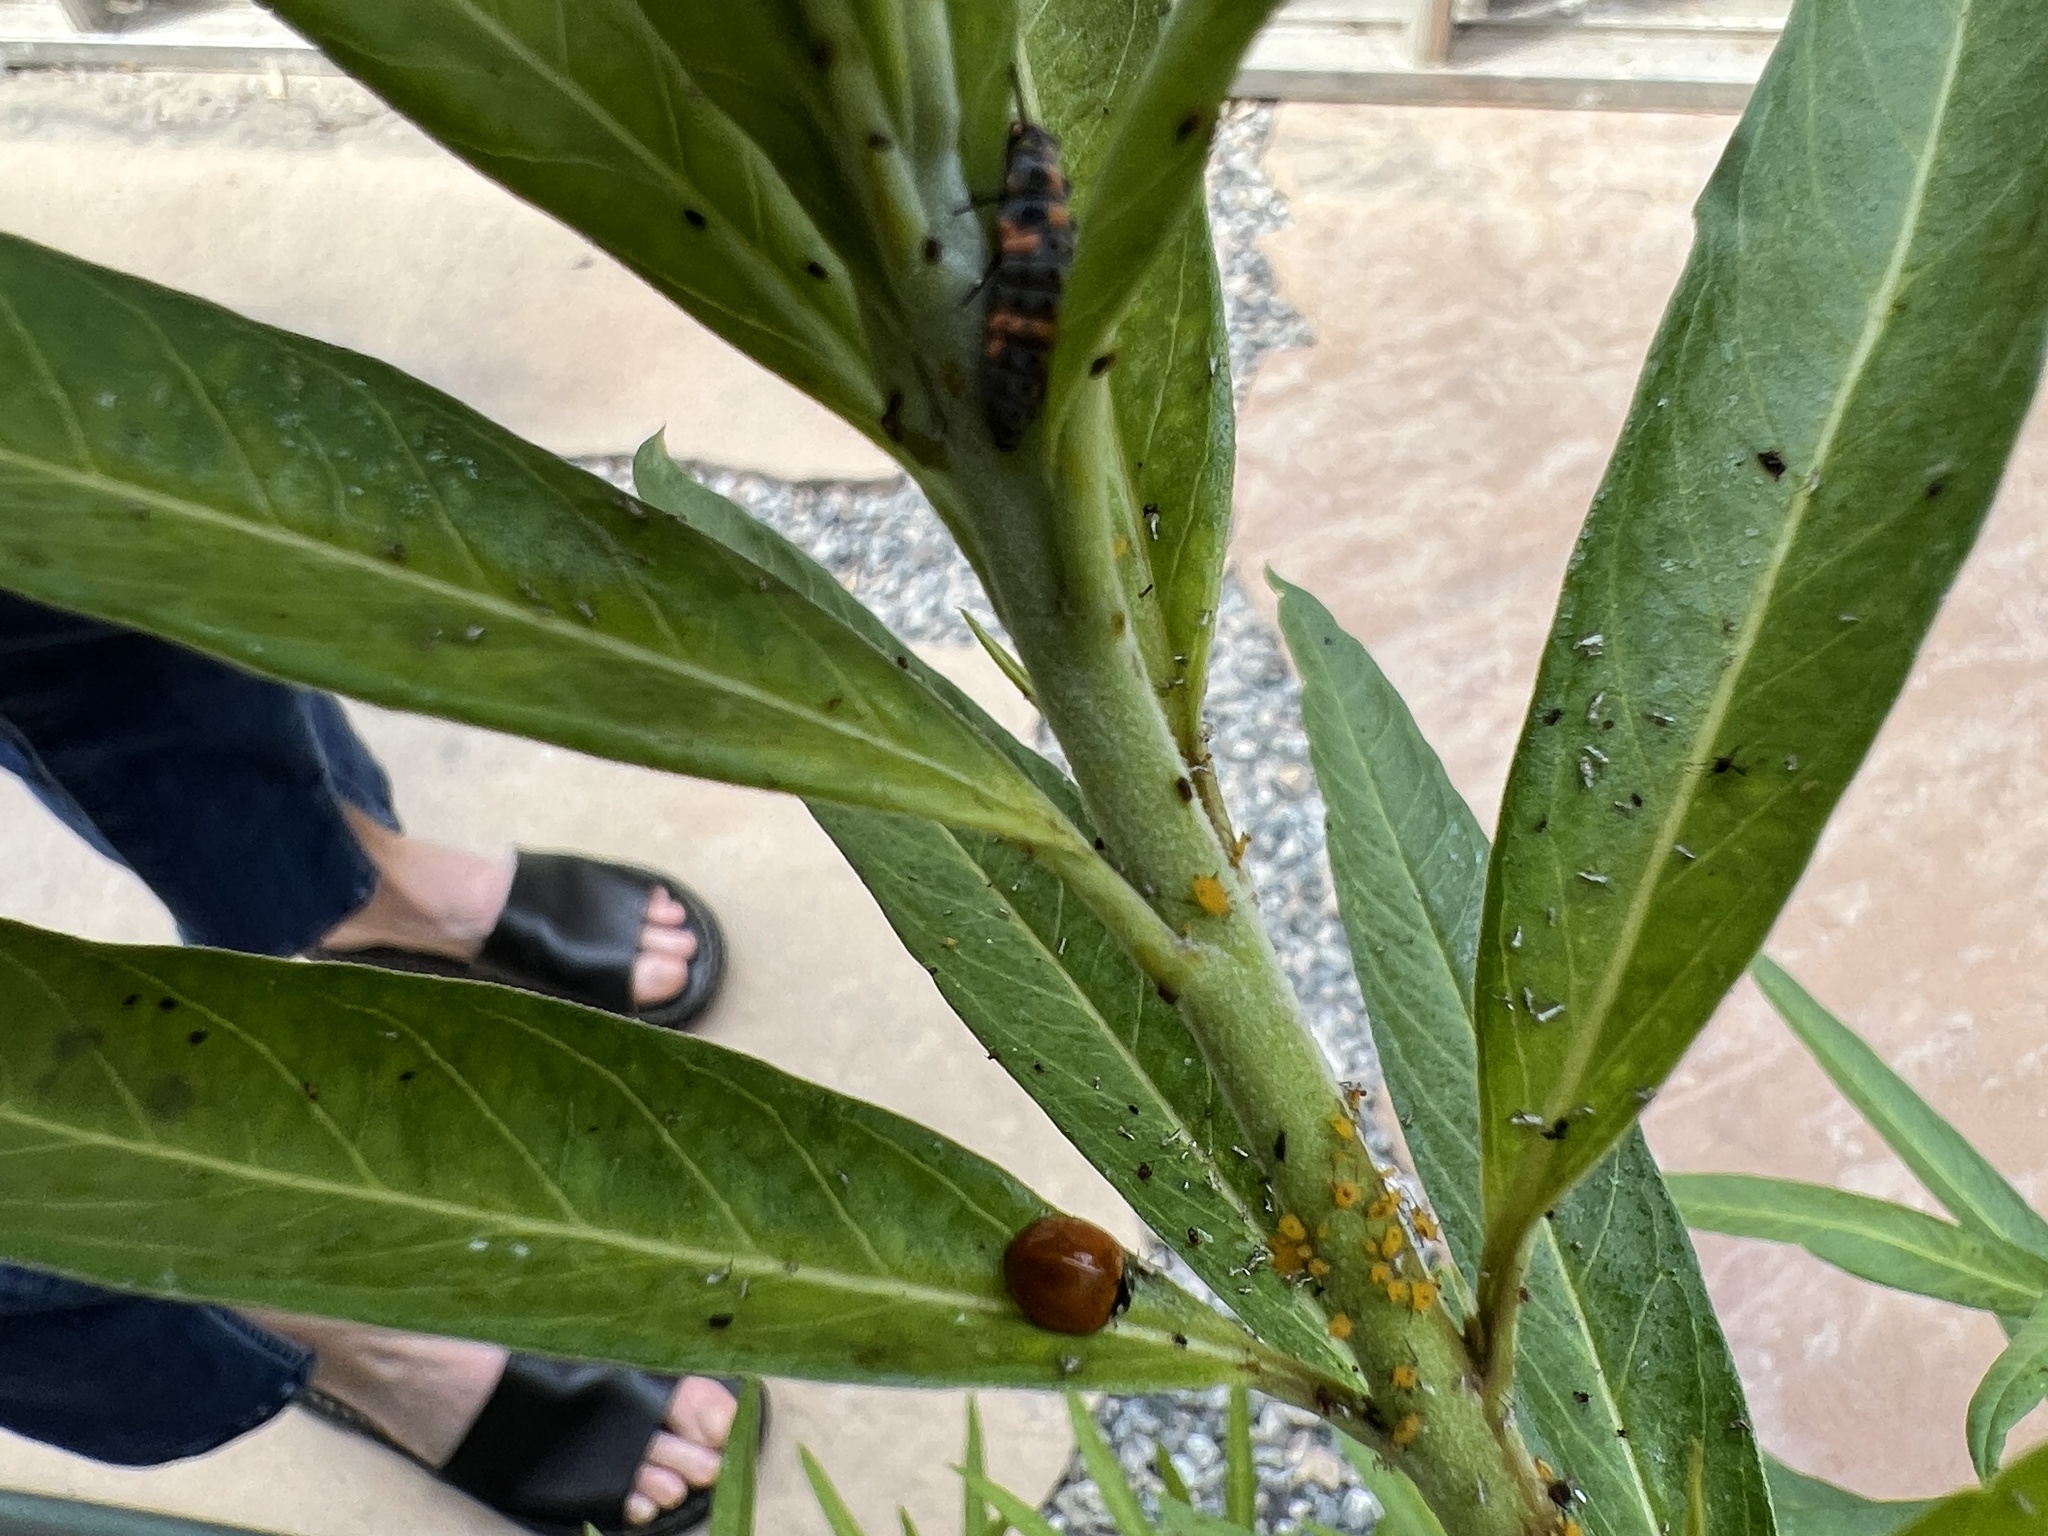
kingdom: Animalia
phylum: Arthropoda
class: Insecta
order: Coleoptera
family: Coccinellidae
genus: Cycloneda
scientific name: Cycloneda sanguinea
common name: Ladybird beetle
